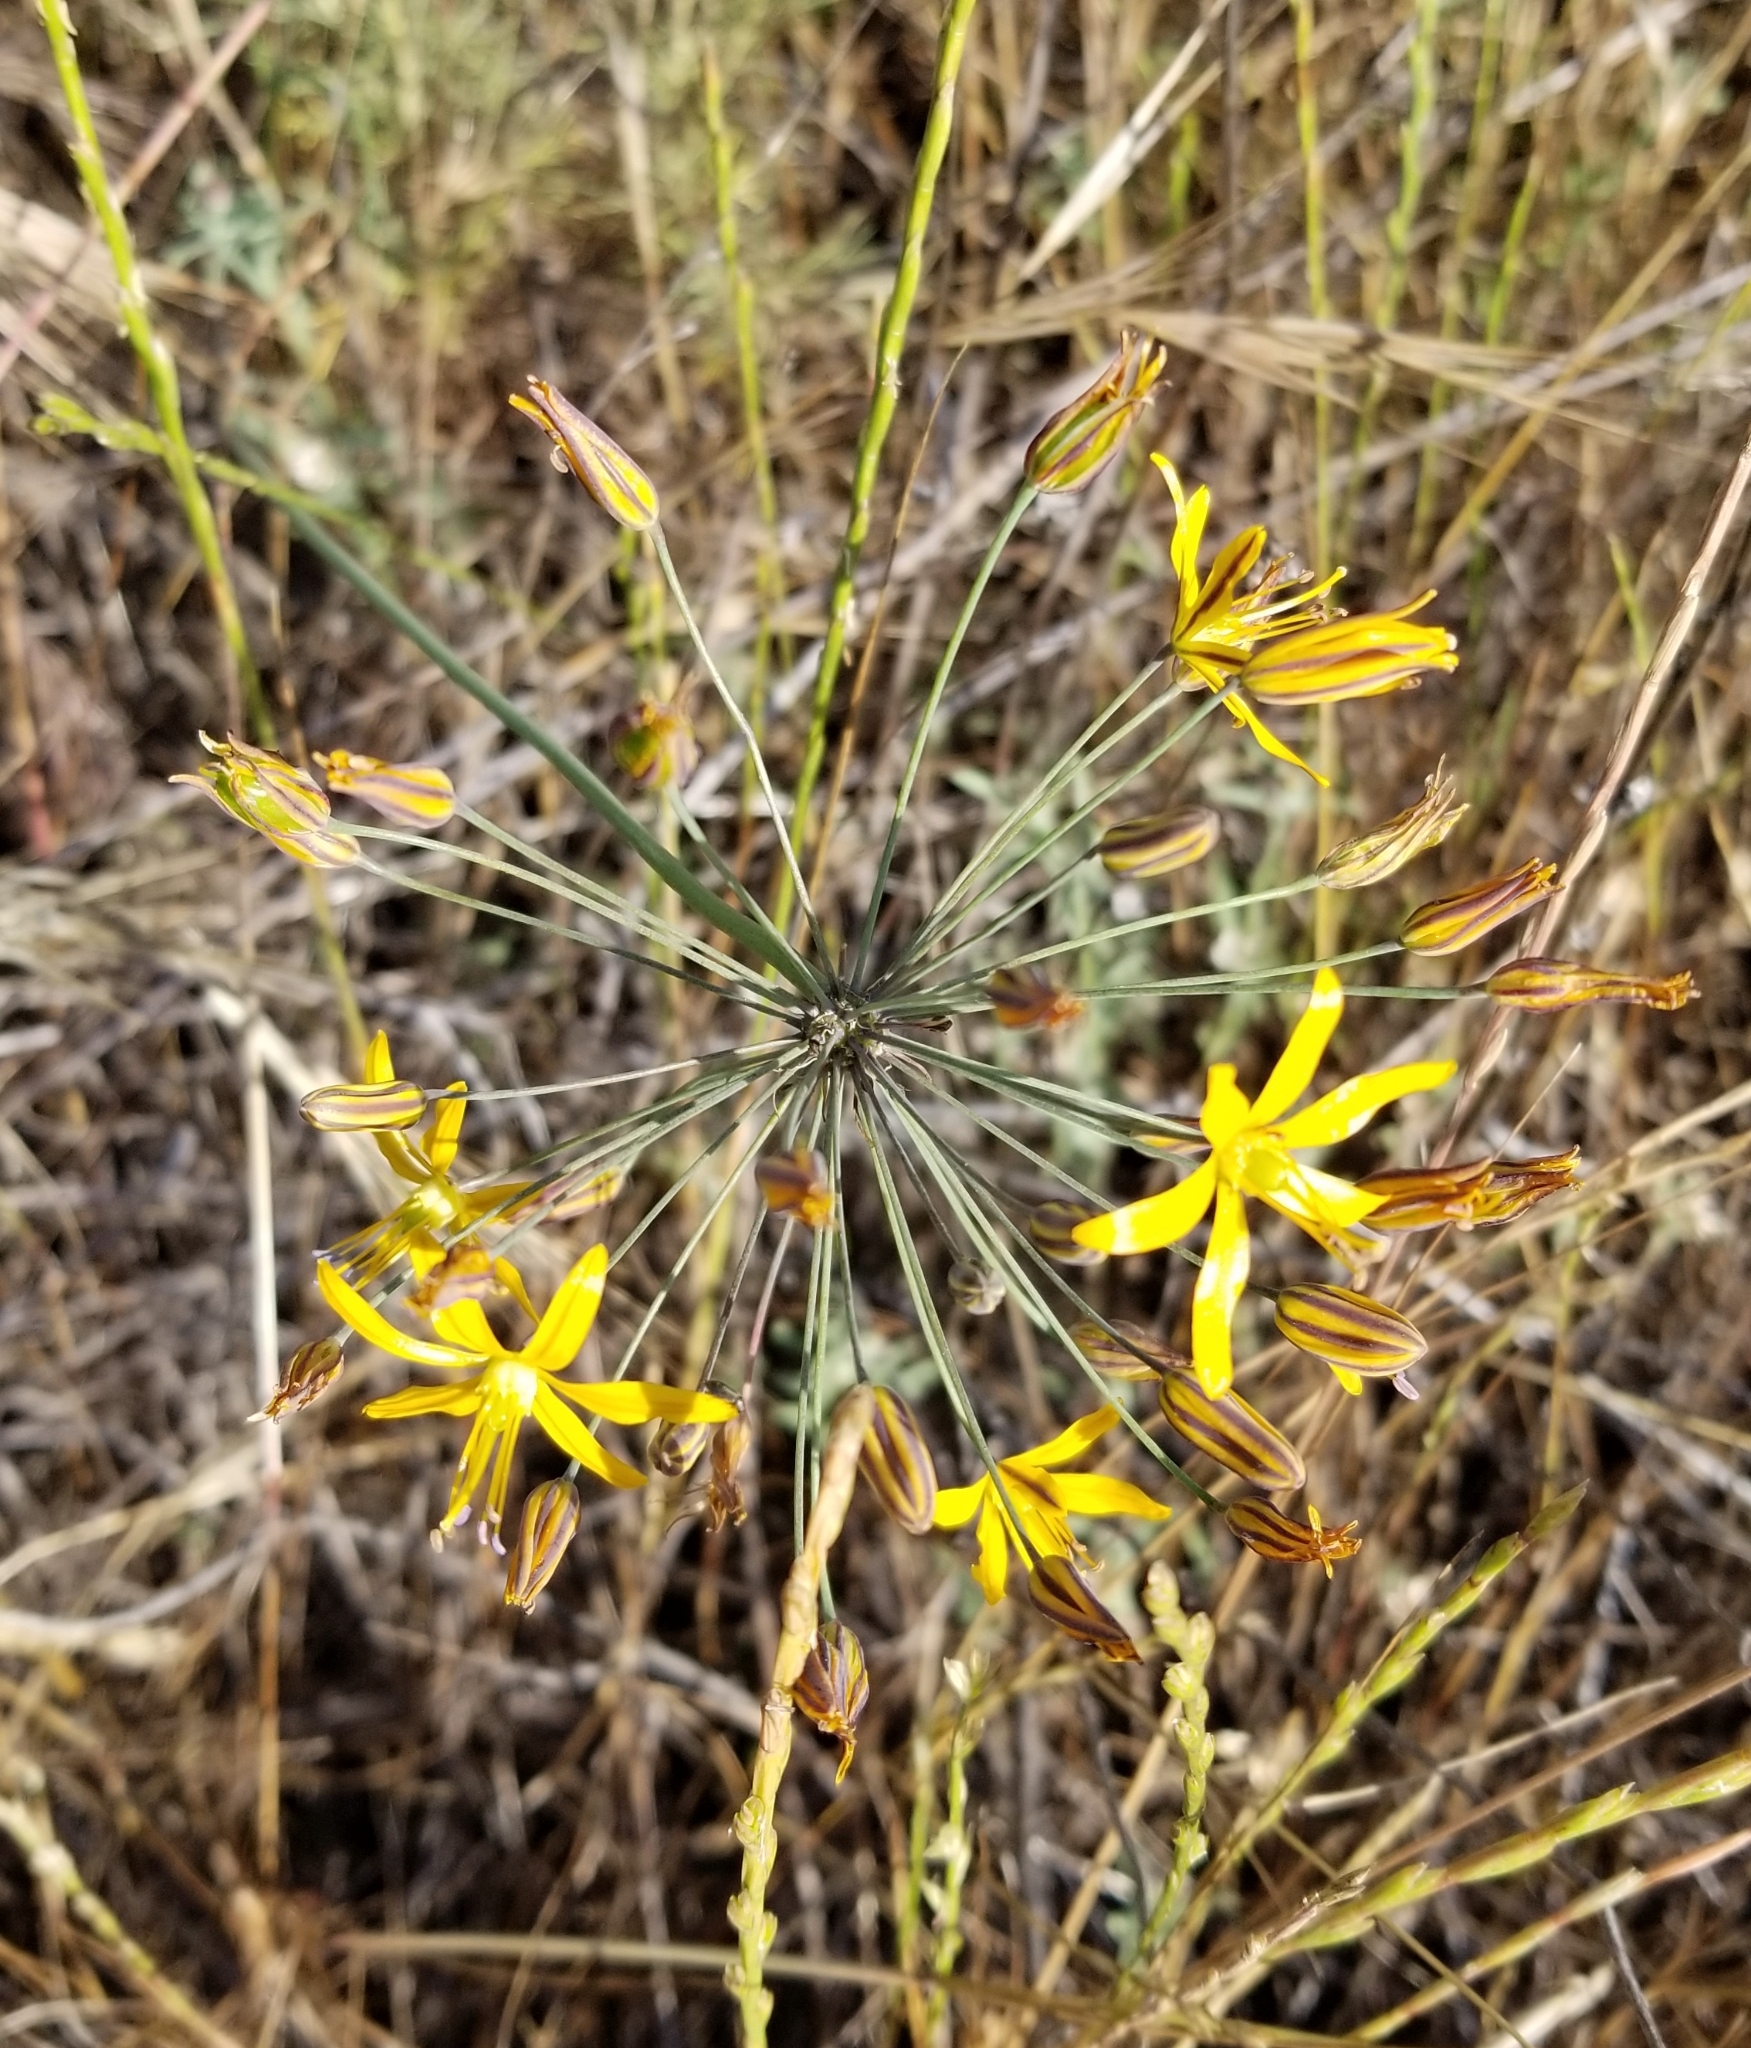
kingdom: Plantae
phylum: Tracheophyta
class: Liliopsida
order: Asparagales
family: Asparagaceae
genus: Bloomeria
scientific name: Bloomeria crocea
